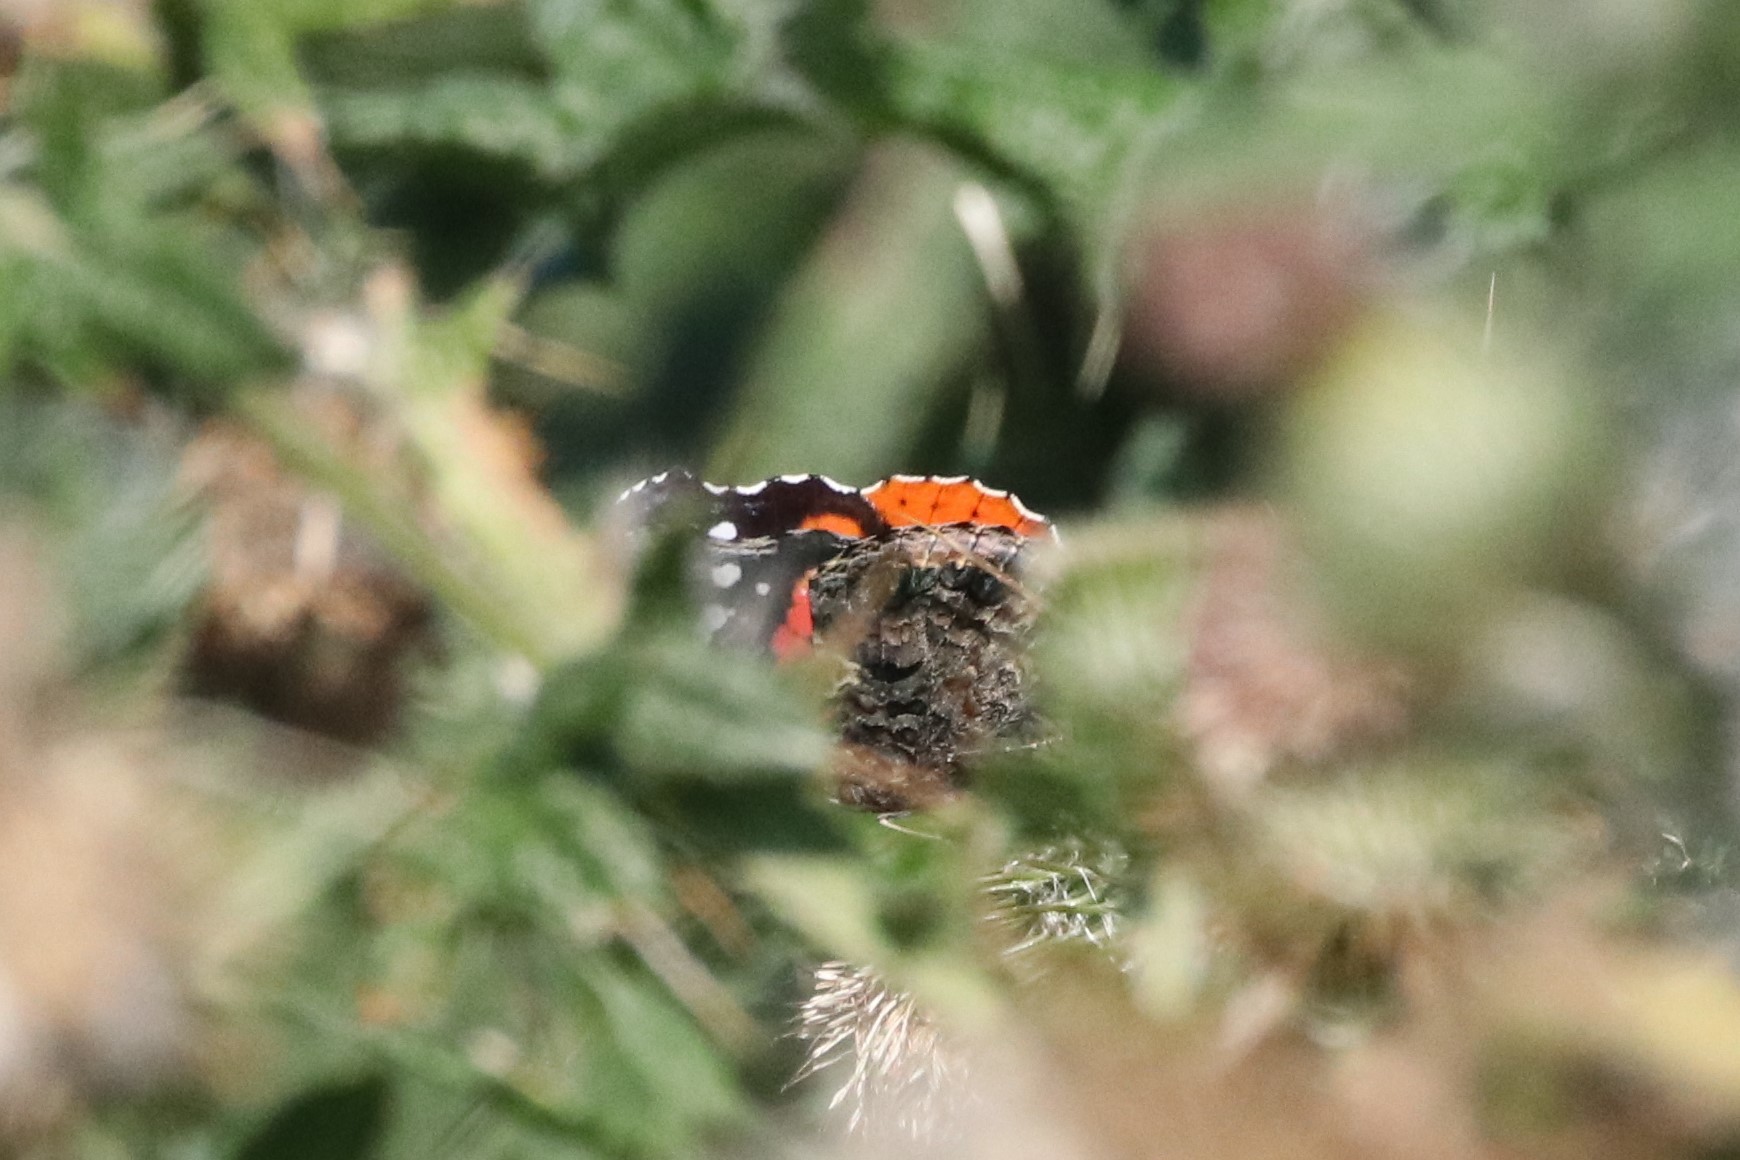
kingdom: Animalia
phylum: Arthropoda
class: Insecta
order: Lepidoptera
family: Nymphalidae
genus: Vanessa
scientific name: Vanessa atalanta
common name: Red admiral
